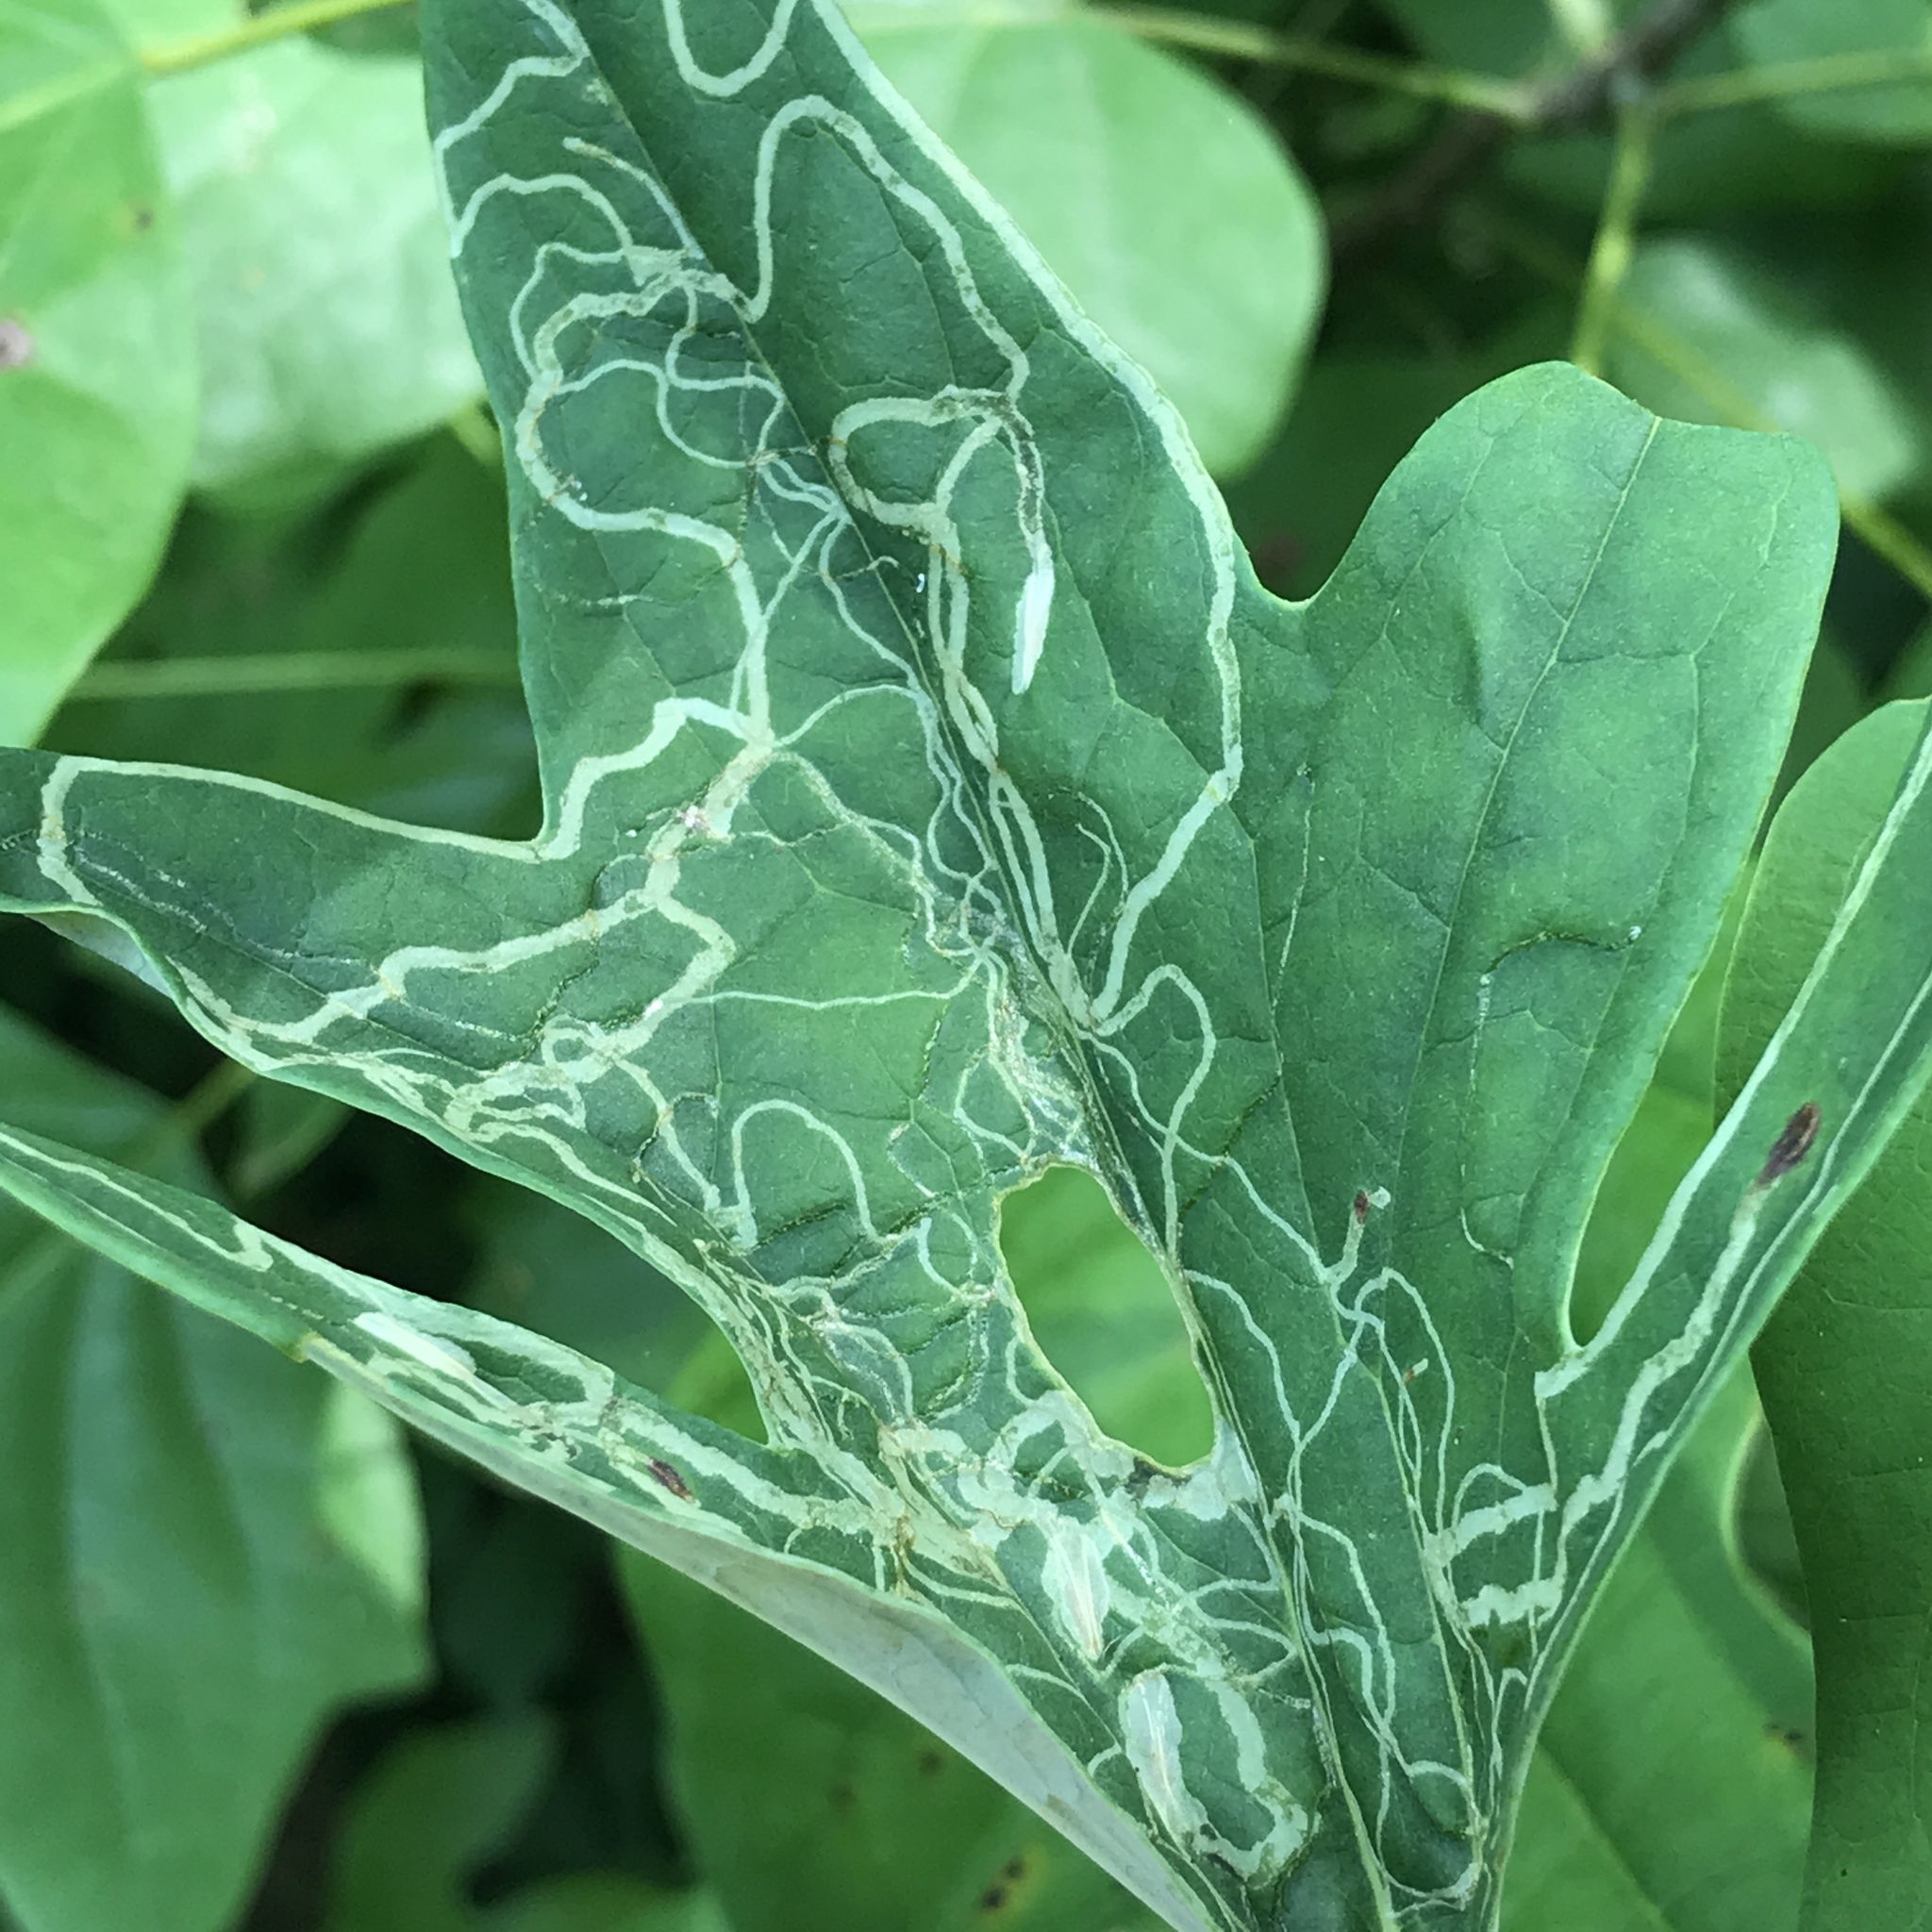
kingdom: Animalia
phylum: Arthropoda
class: Insecta
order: Lepidoptera
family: Gracillariidae
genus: Phyllocnistis
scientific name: Phyllocnistis insignis
